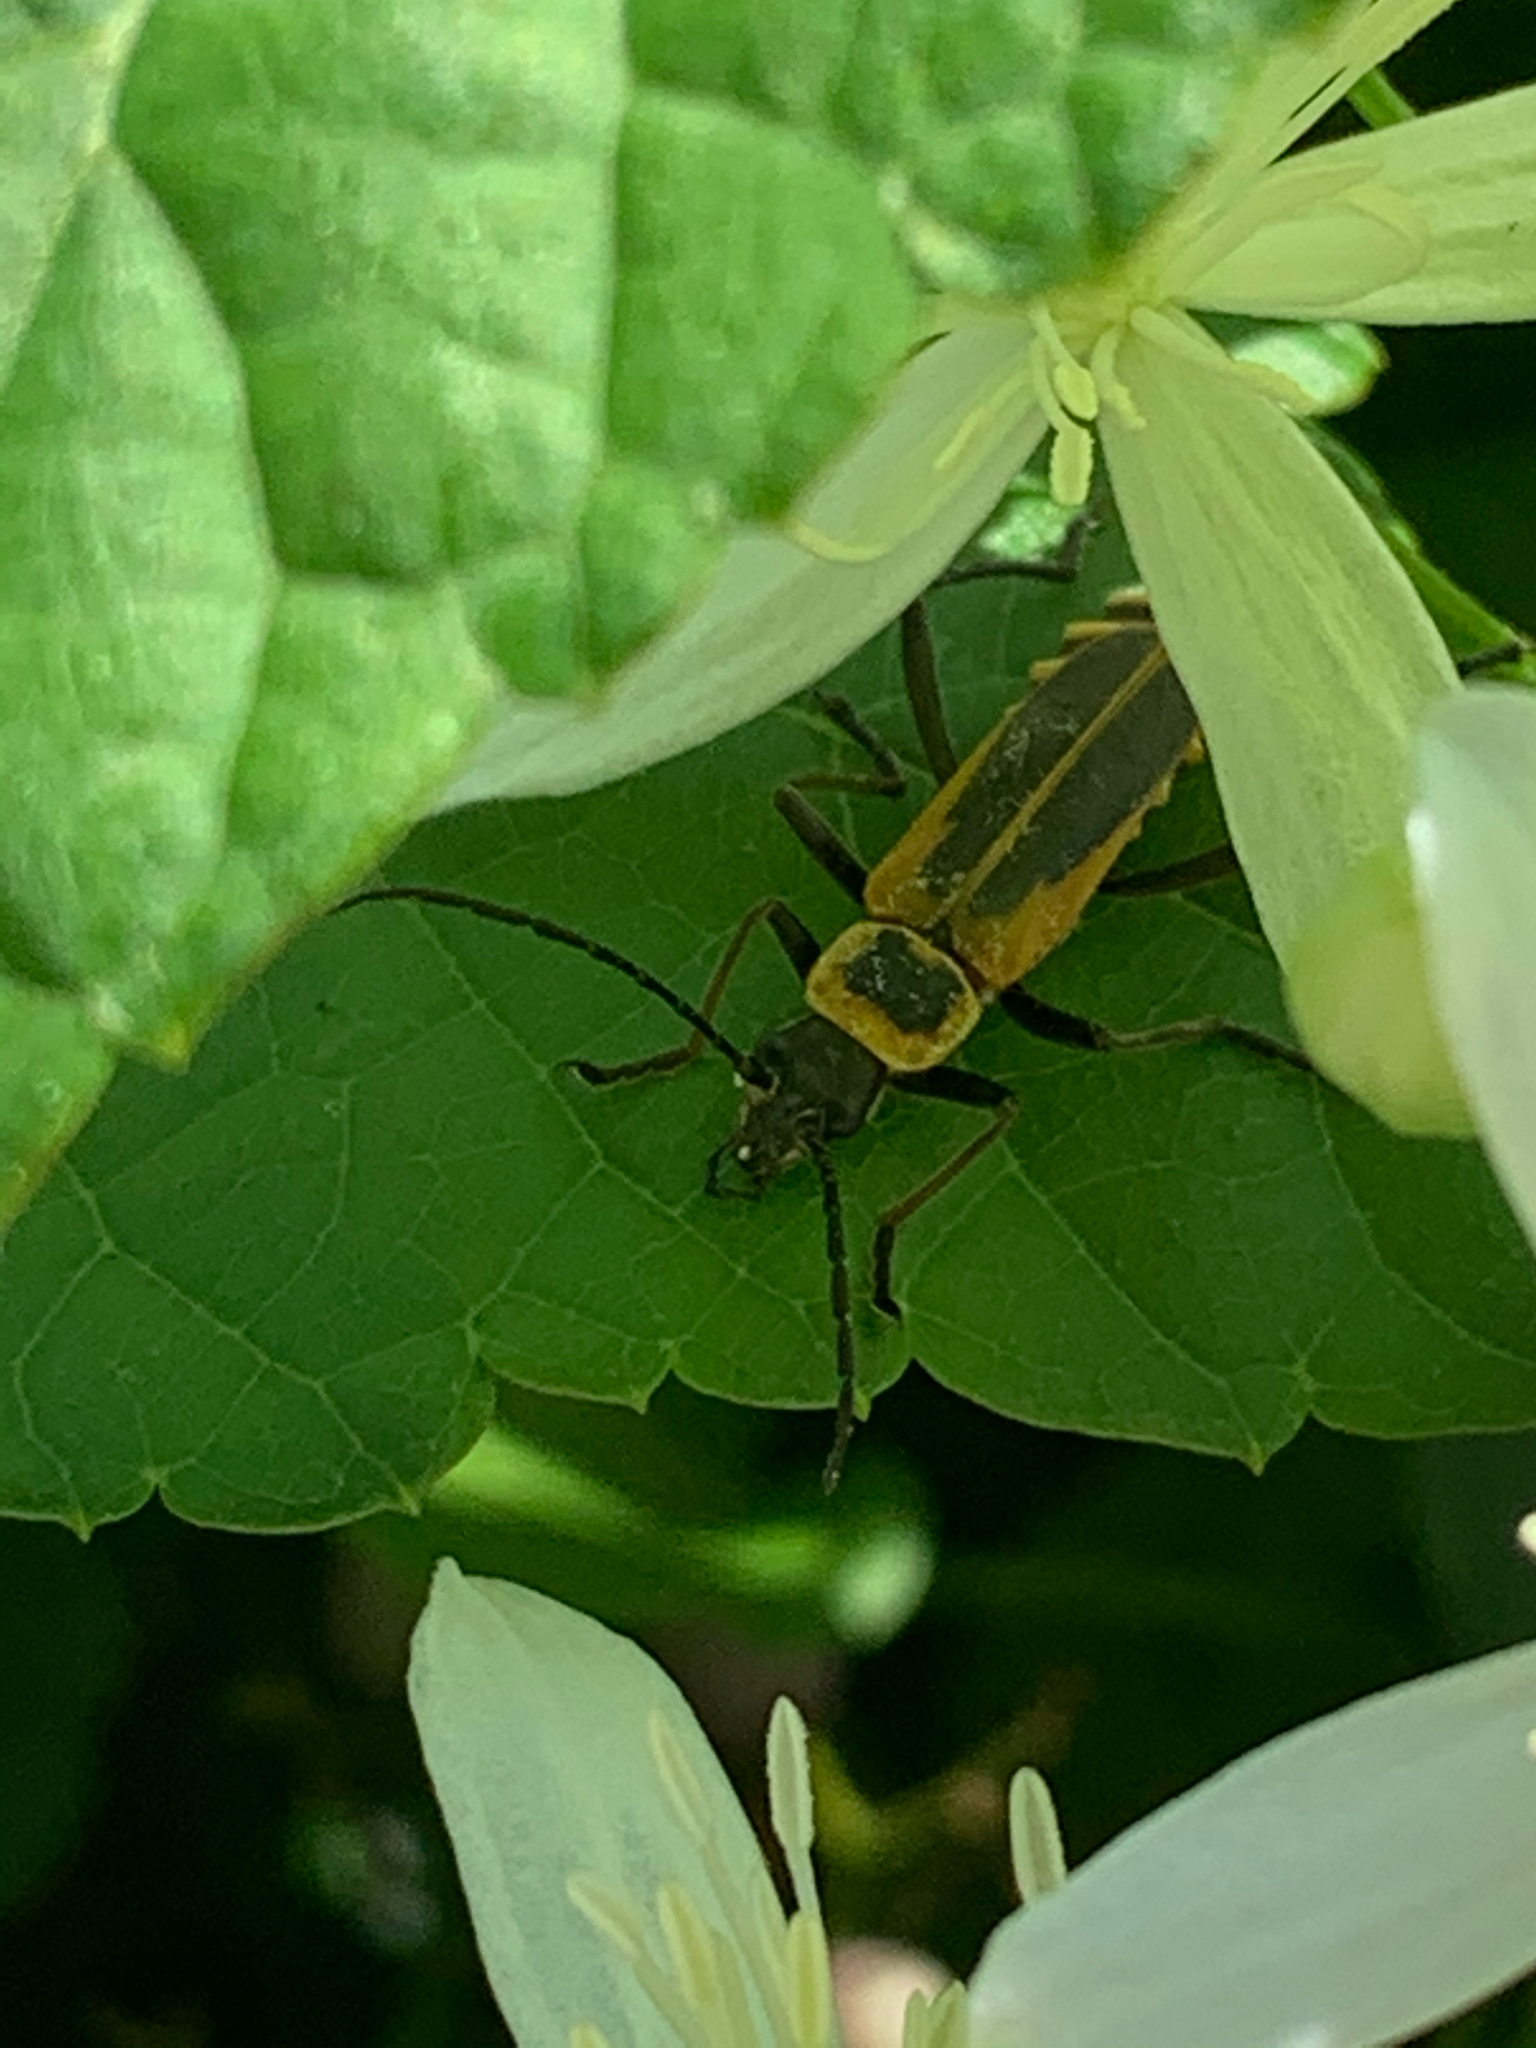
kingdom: Animalia
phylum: Arthropoda
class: Insecta
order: Coleoptera
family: Cantharidae
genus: Chauliognathus
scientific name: Chauliognathus pensylvanicus
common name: Goldenrod soldier beetle
